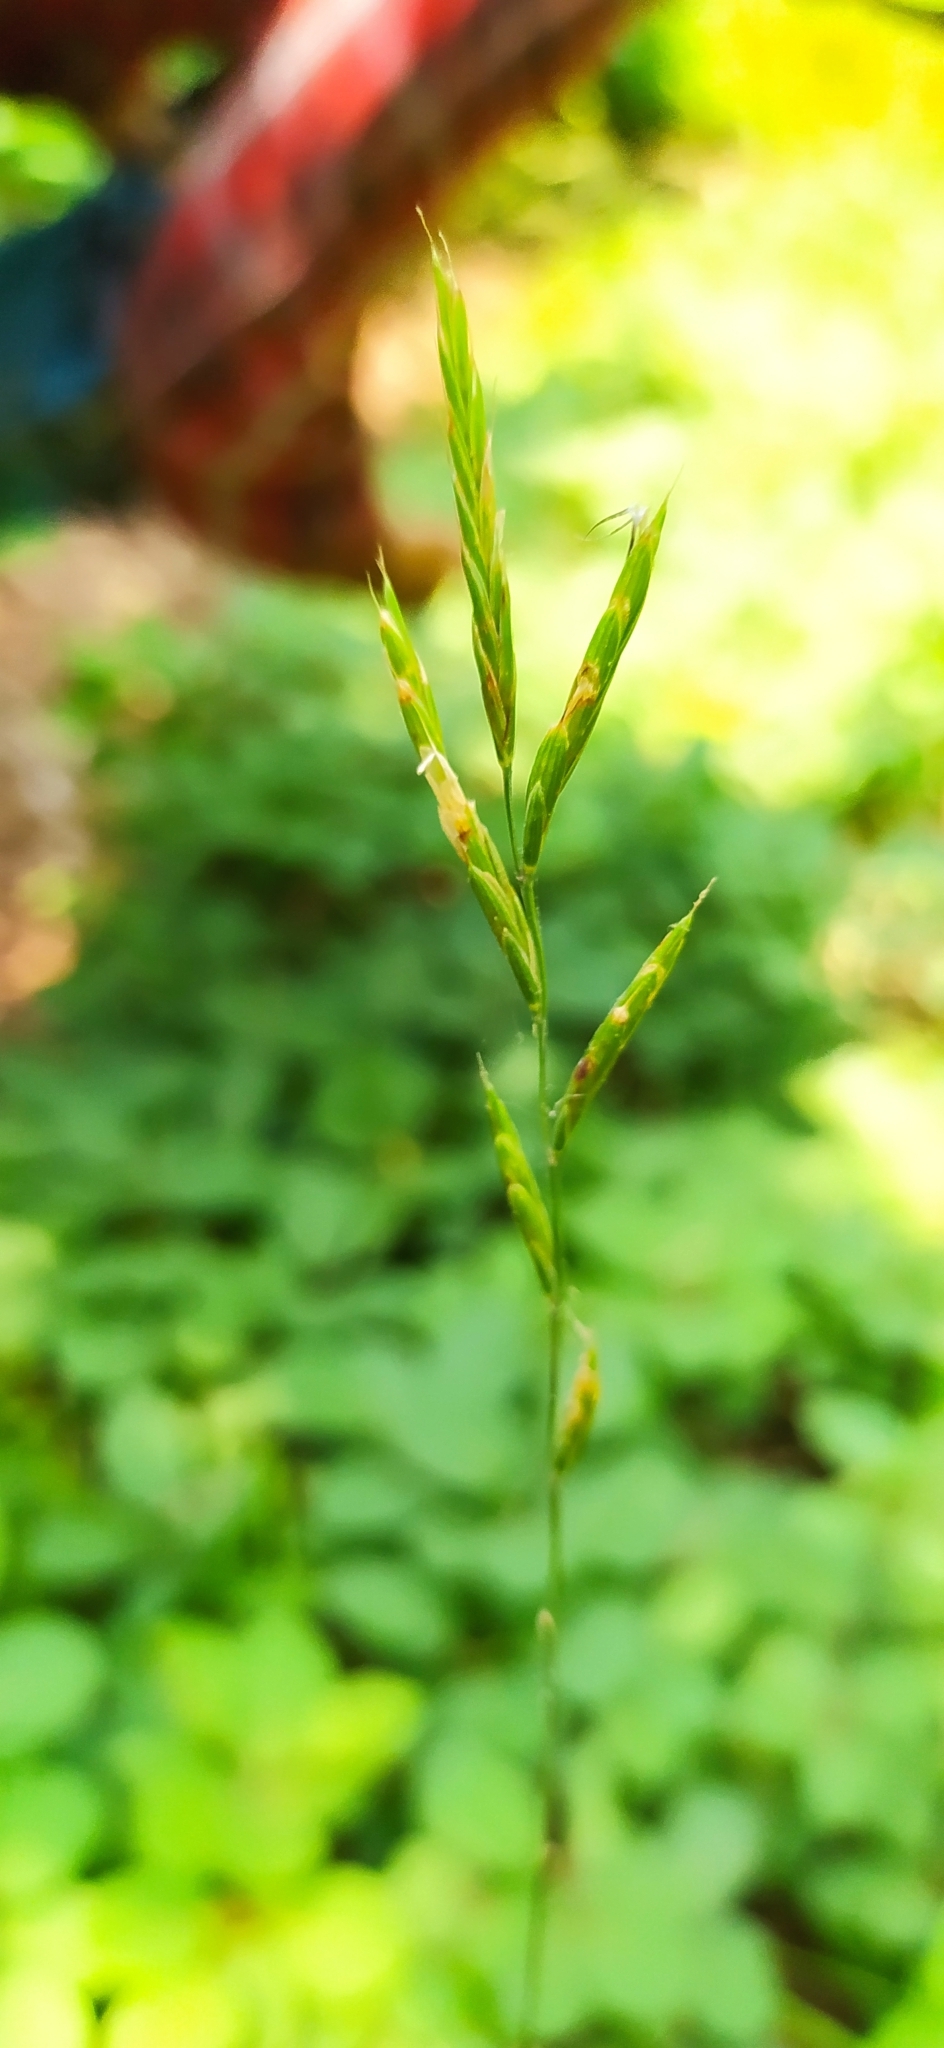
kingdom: Plantae
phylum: Tracheophyta
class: Liliopsida
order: Poales
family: Poaceae
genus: Brachypodium
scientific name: Brachypodium pinnatum
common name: Tor grass
